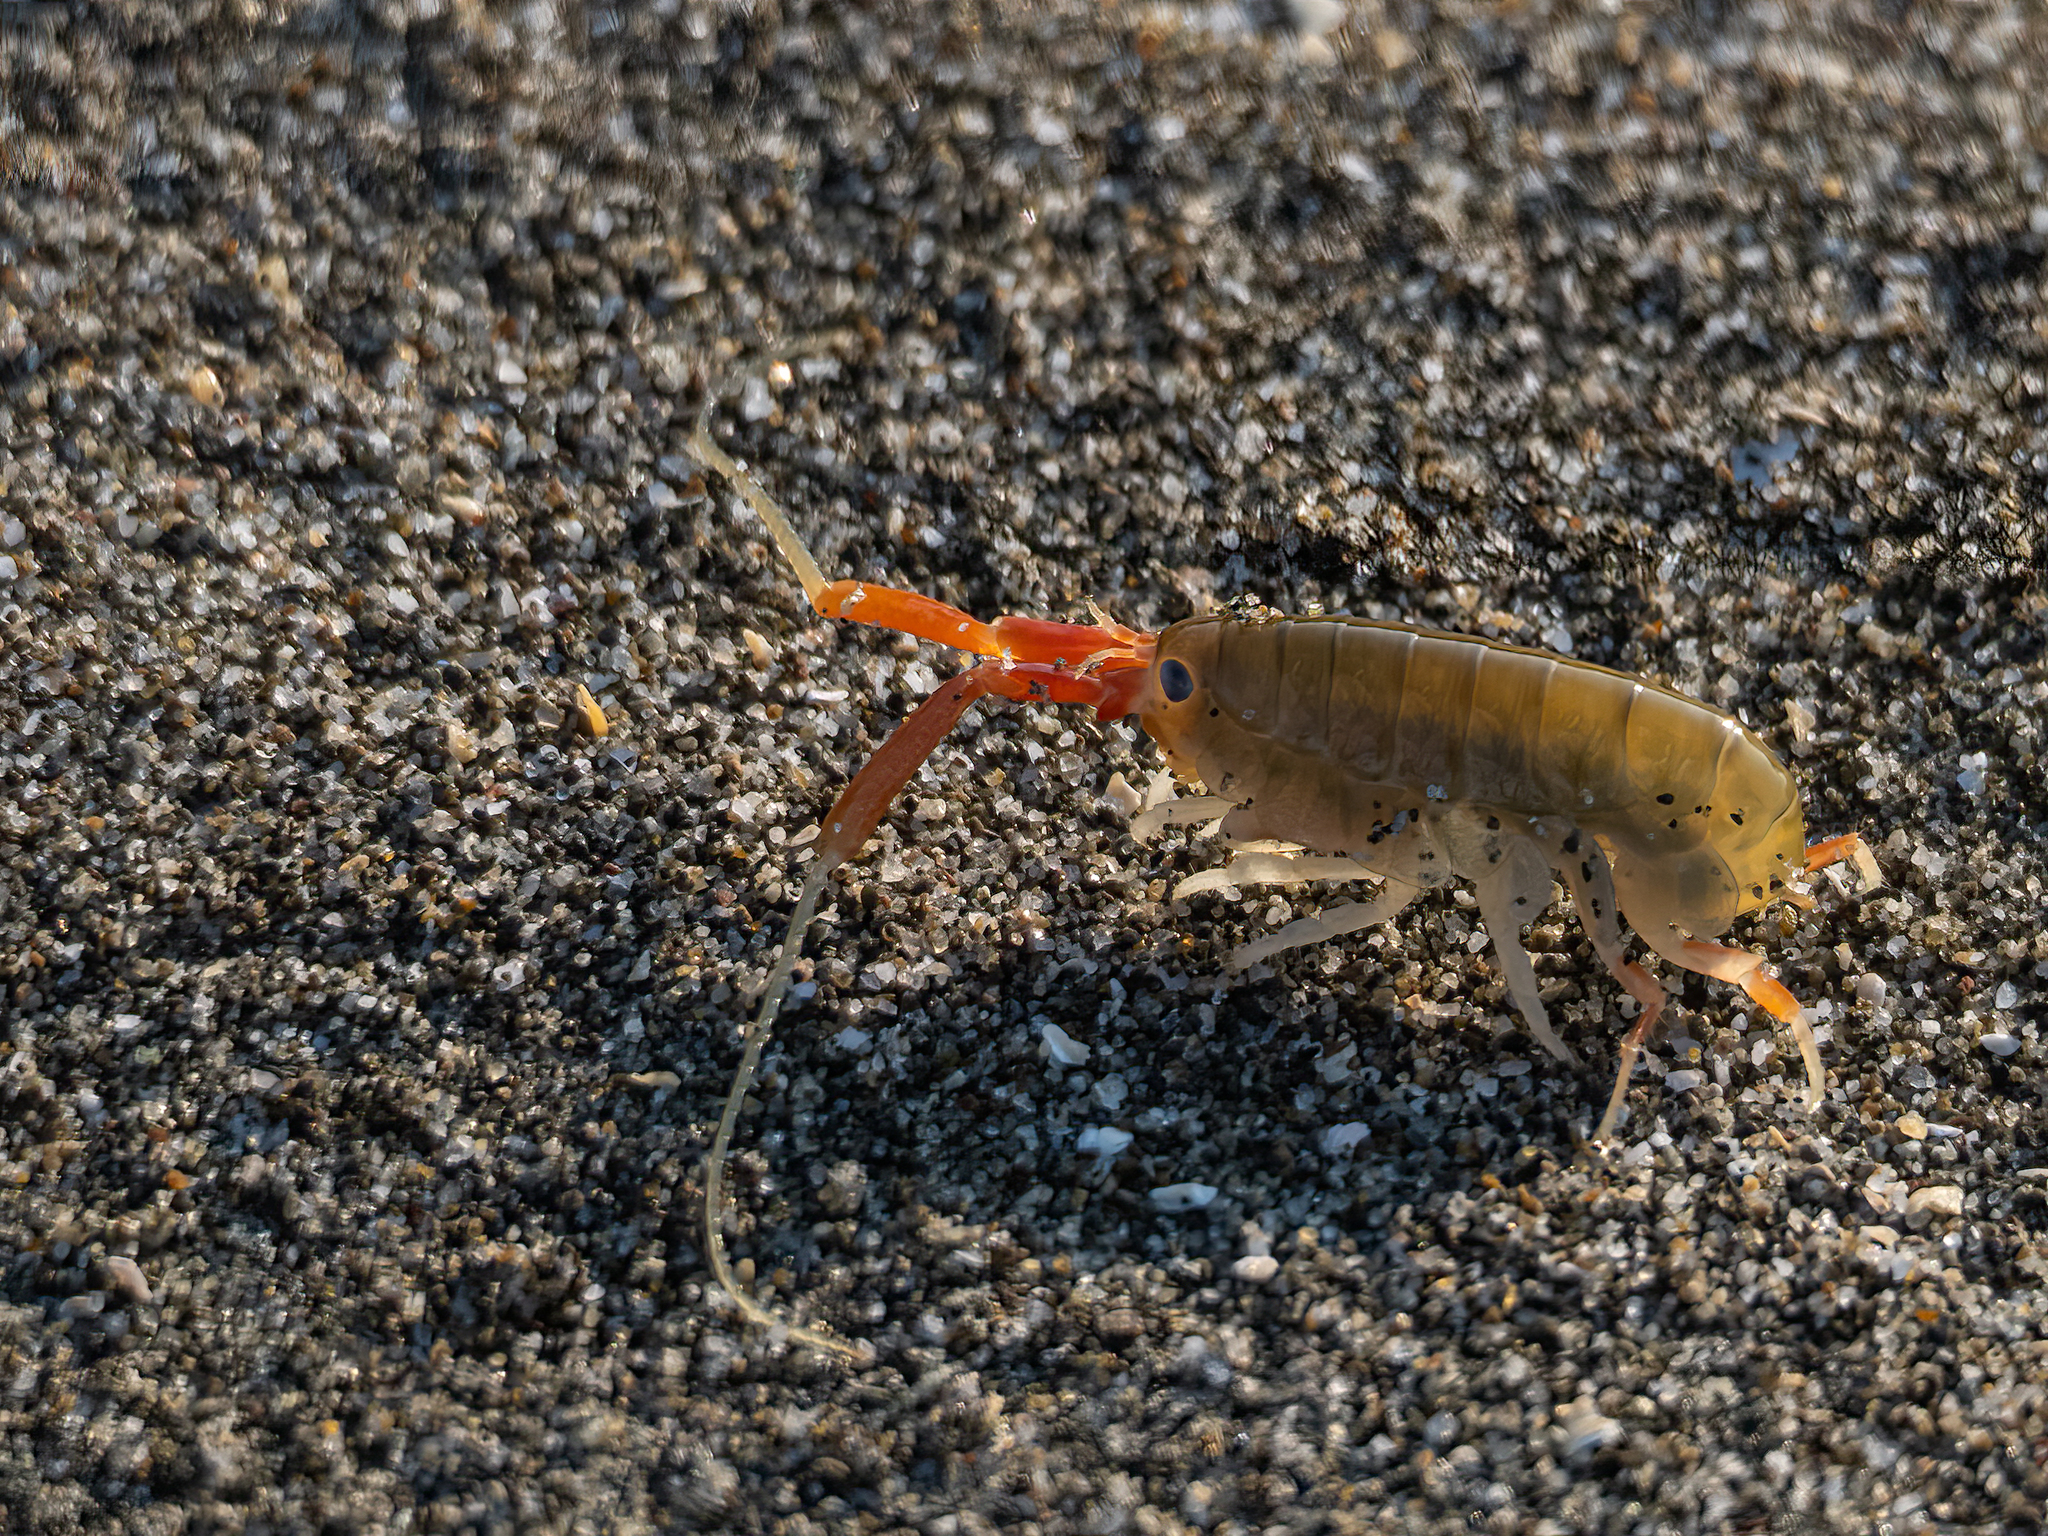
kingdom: Animalia
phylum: Arthropoda
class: Malacostraca
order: Amphipoda
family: Talitridae
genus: Megalorchestia
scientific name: Megalorchestia californiana
